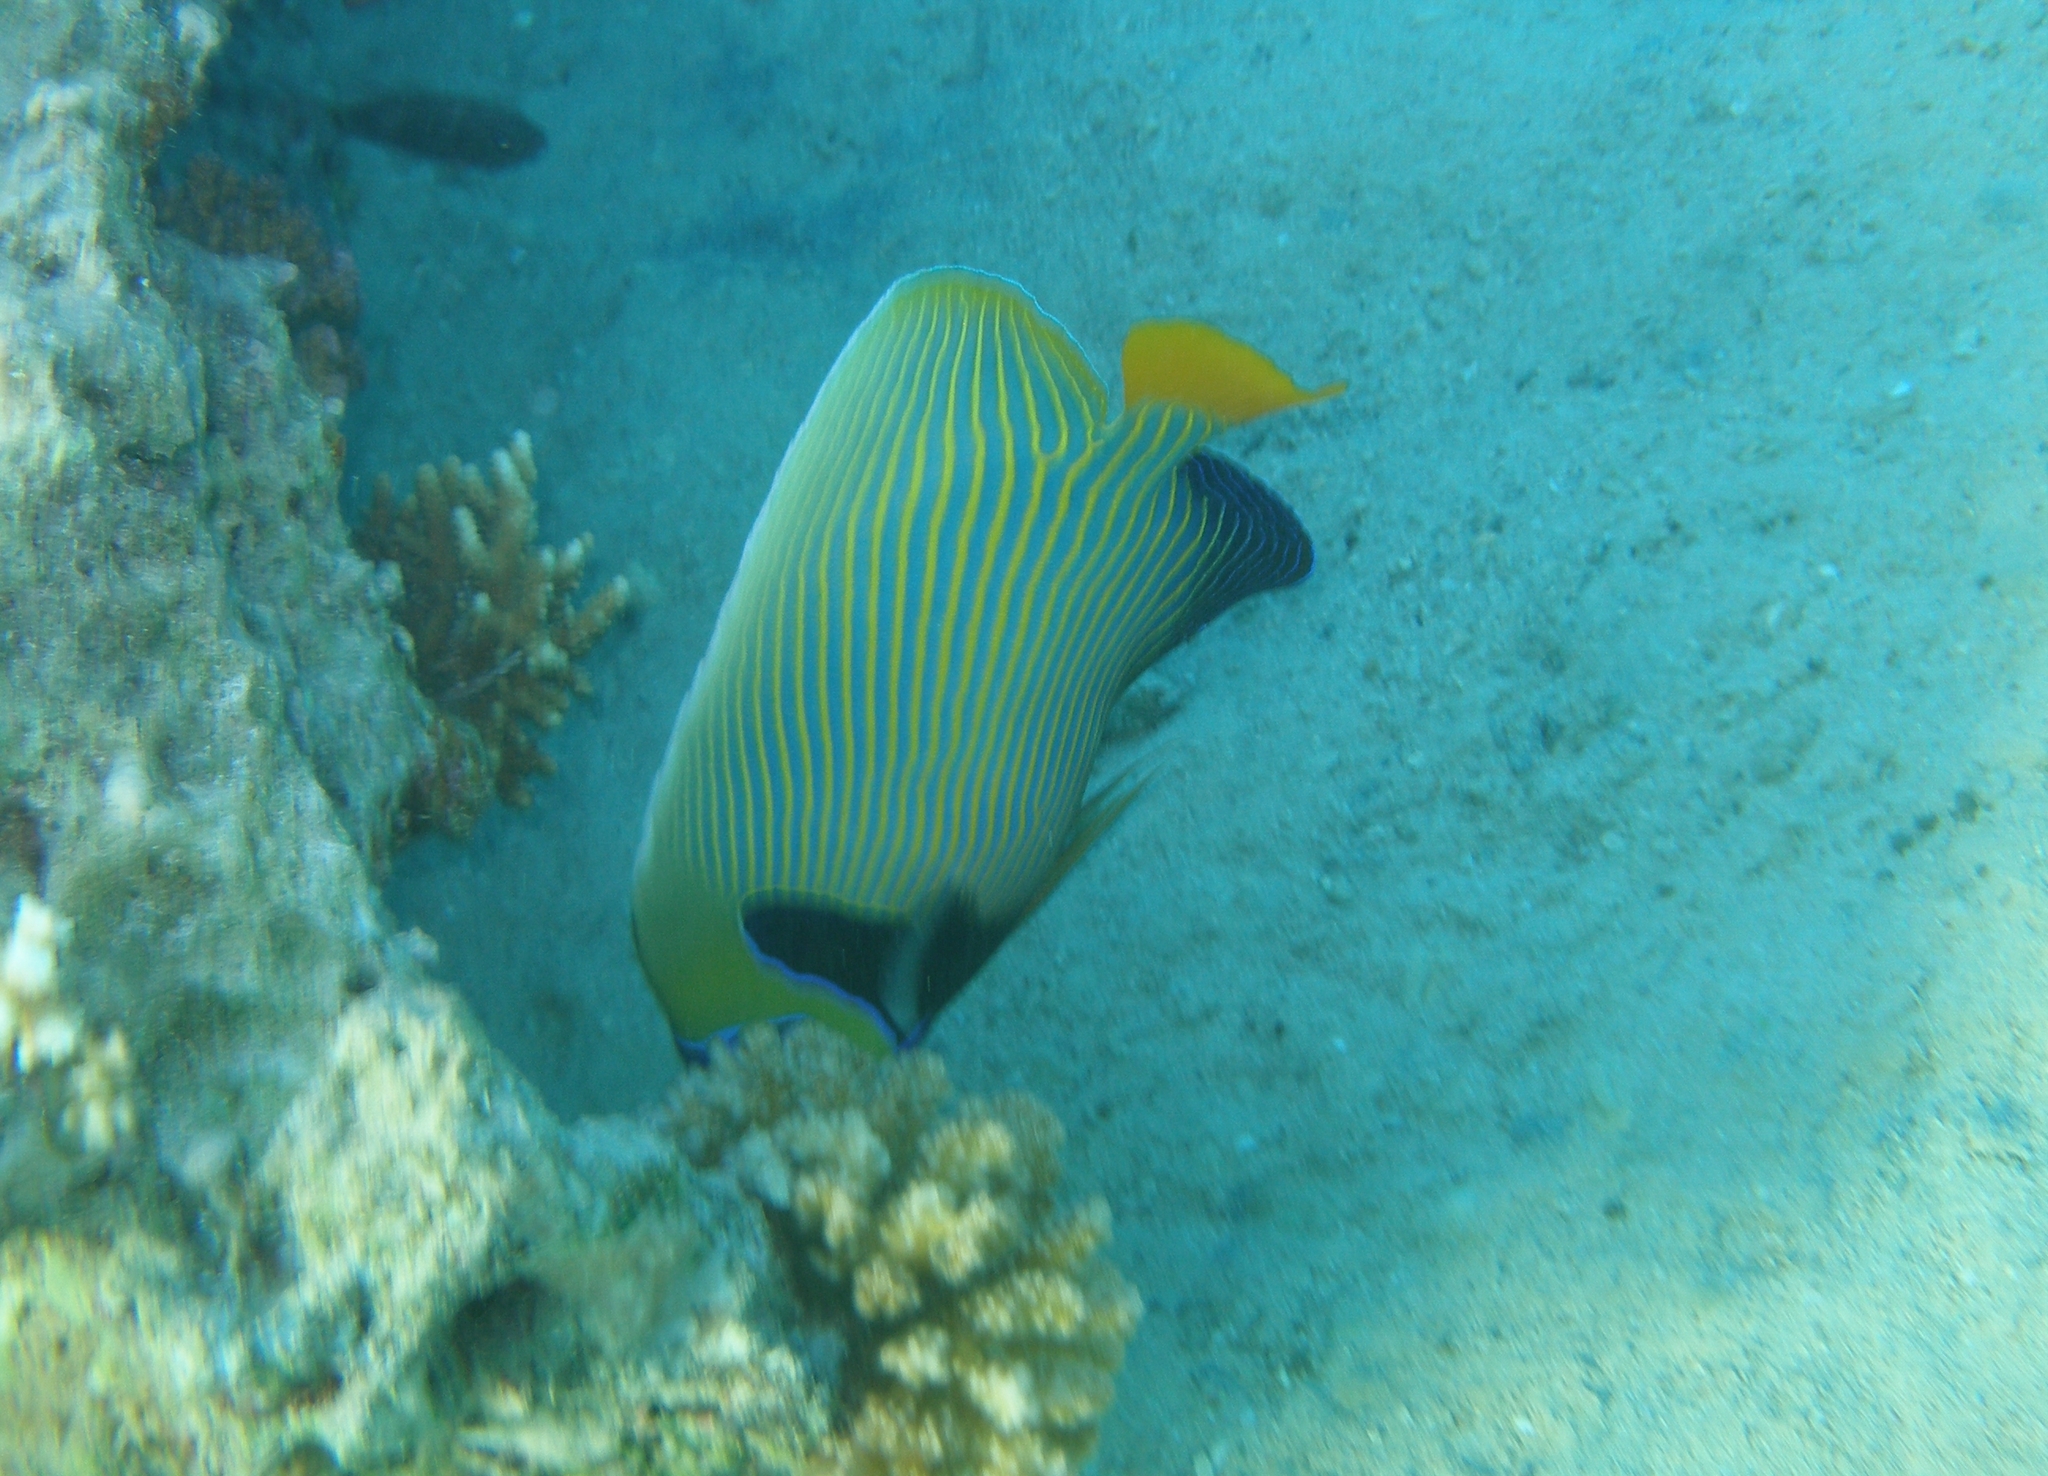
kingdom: Animalia
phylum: Chordata
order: Perciformes
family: Pomacanthidae
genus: Pomacanthus
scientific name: Pomacanthus imperator
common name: Emperor angelfish
